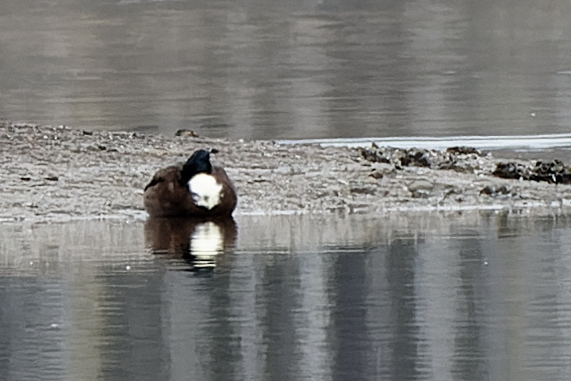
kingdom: Animalia
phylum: Chordata
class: Aves
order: Anseriformes
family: Anatidae
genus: Anas
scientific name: Anas platyrhynchos
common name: Mallard
